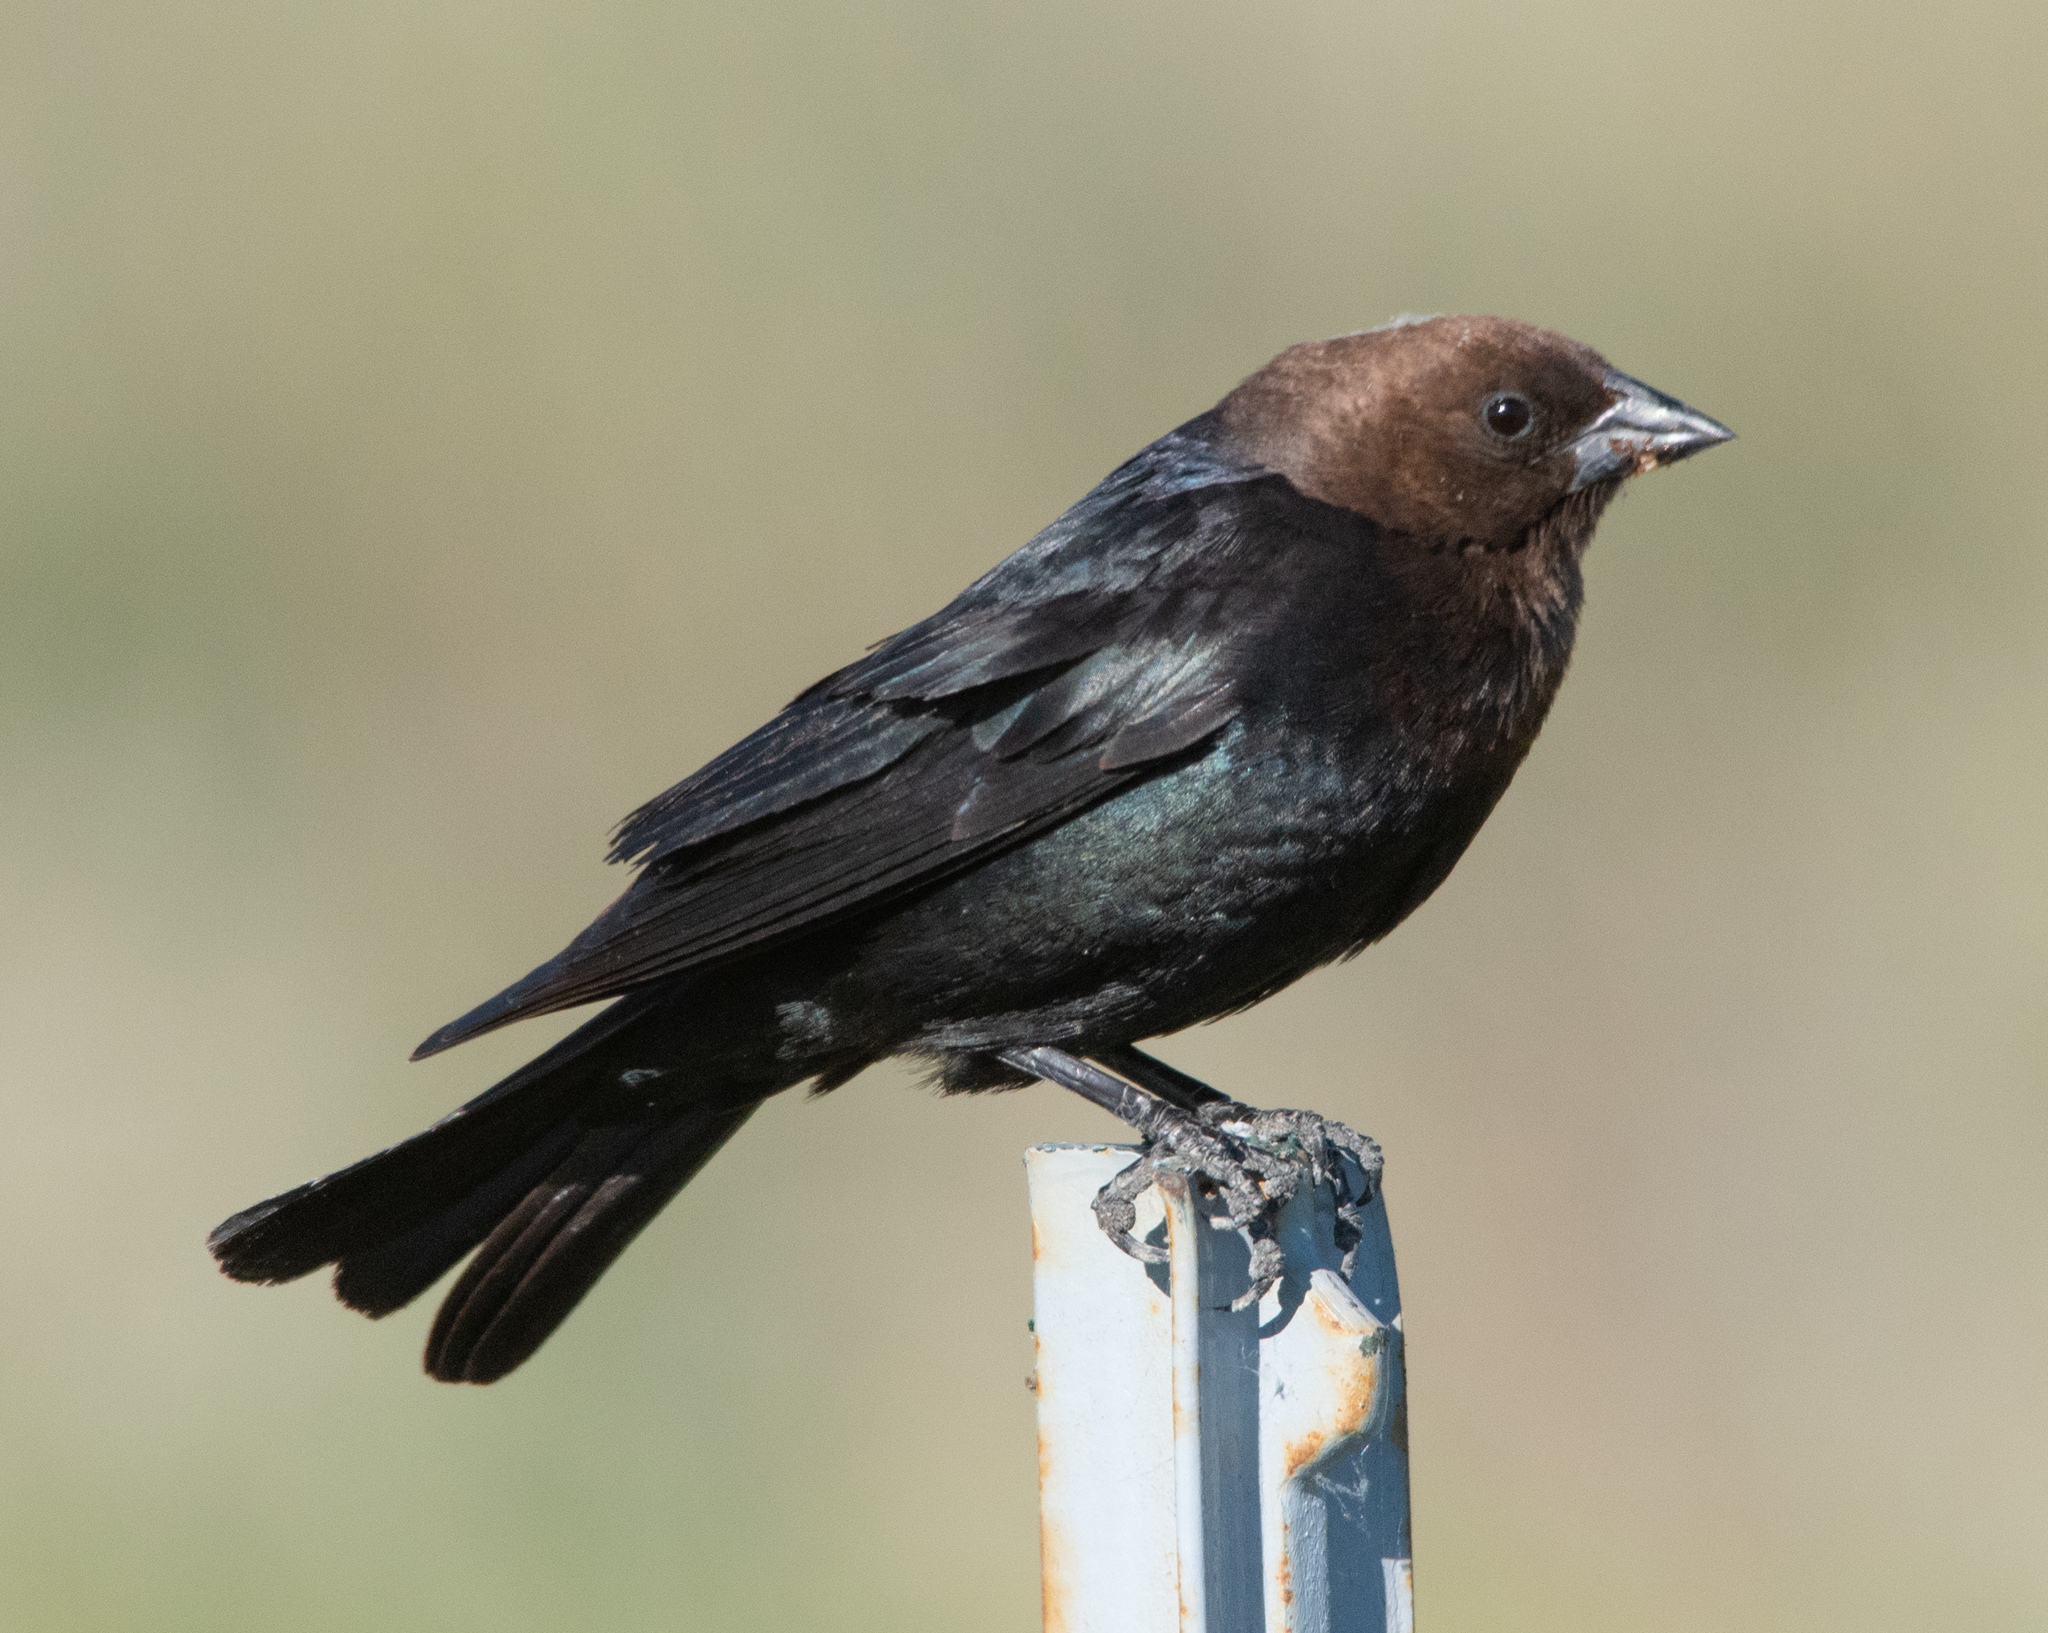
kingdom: Animalia
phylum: Chordata
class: Aves
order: Passeriformes
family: Icteridae
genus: Molothrus
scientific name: Molothrus ater
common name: Brown-headed cowbird
